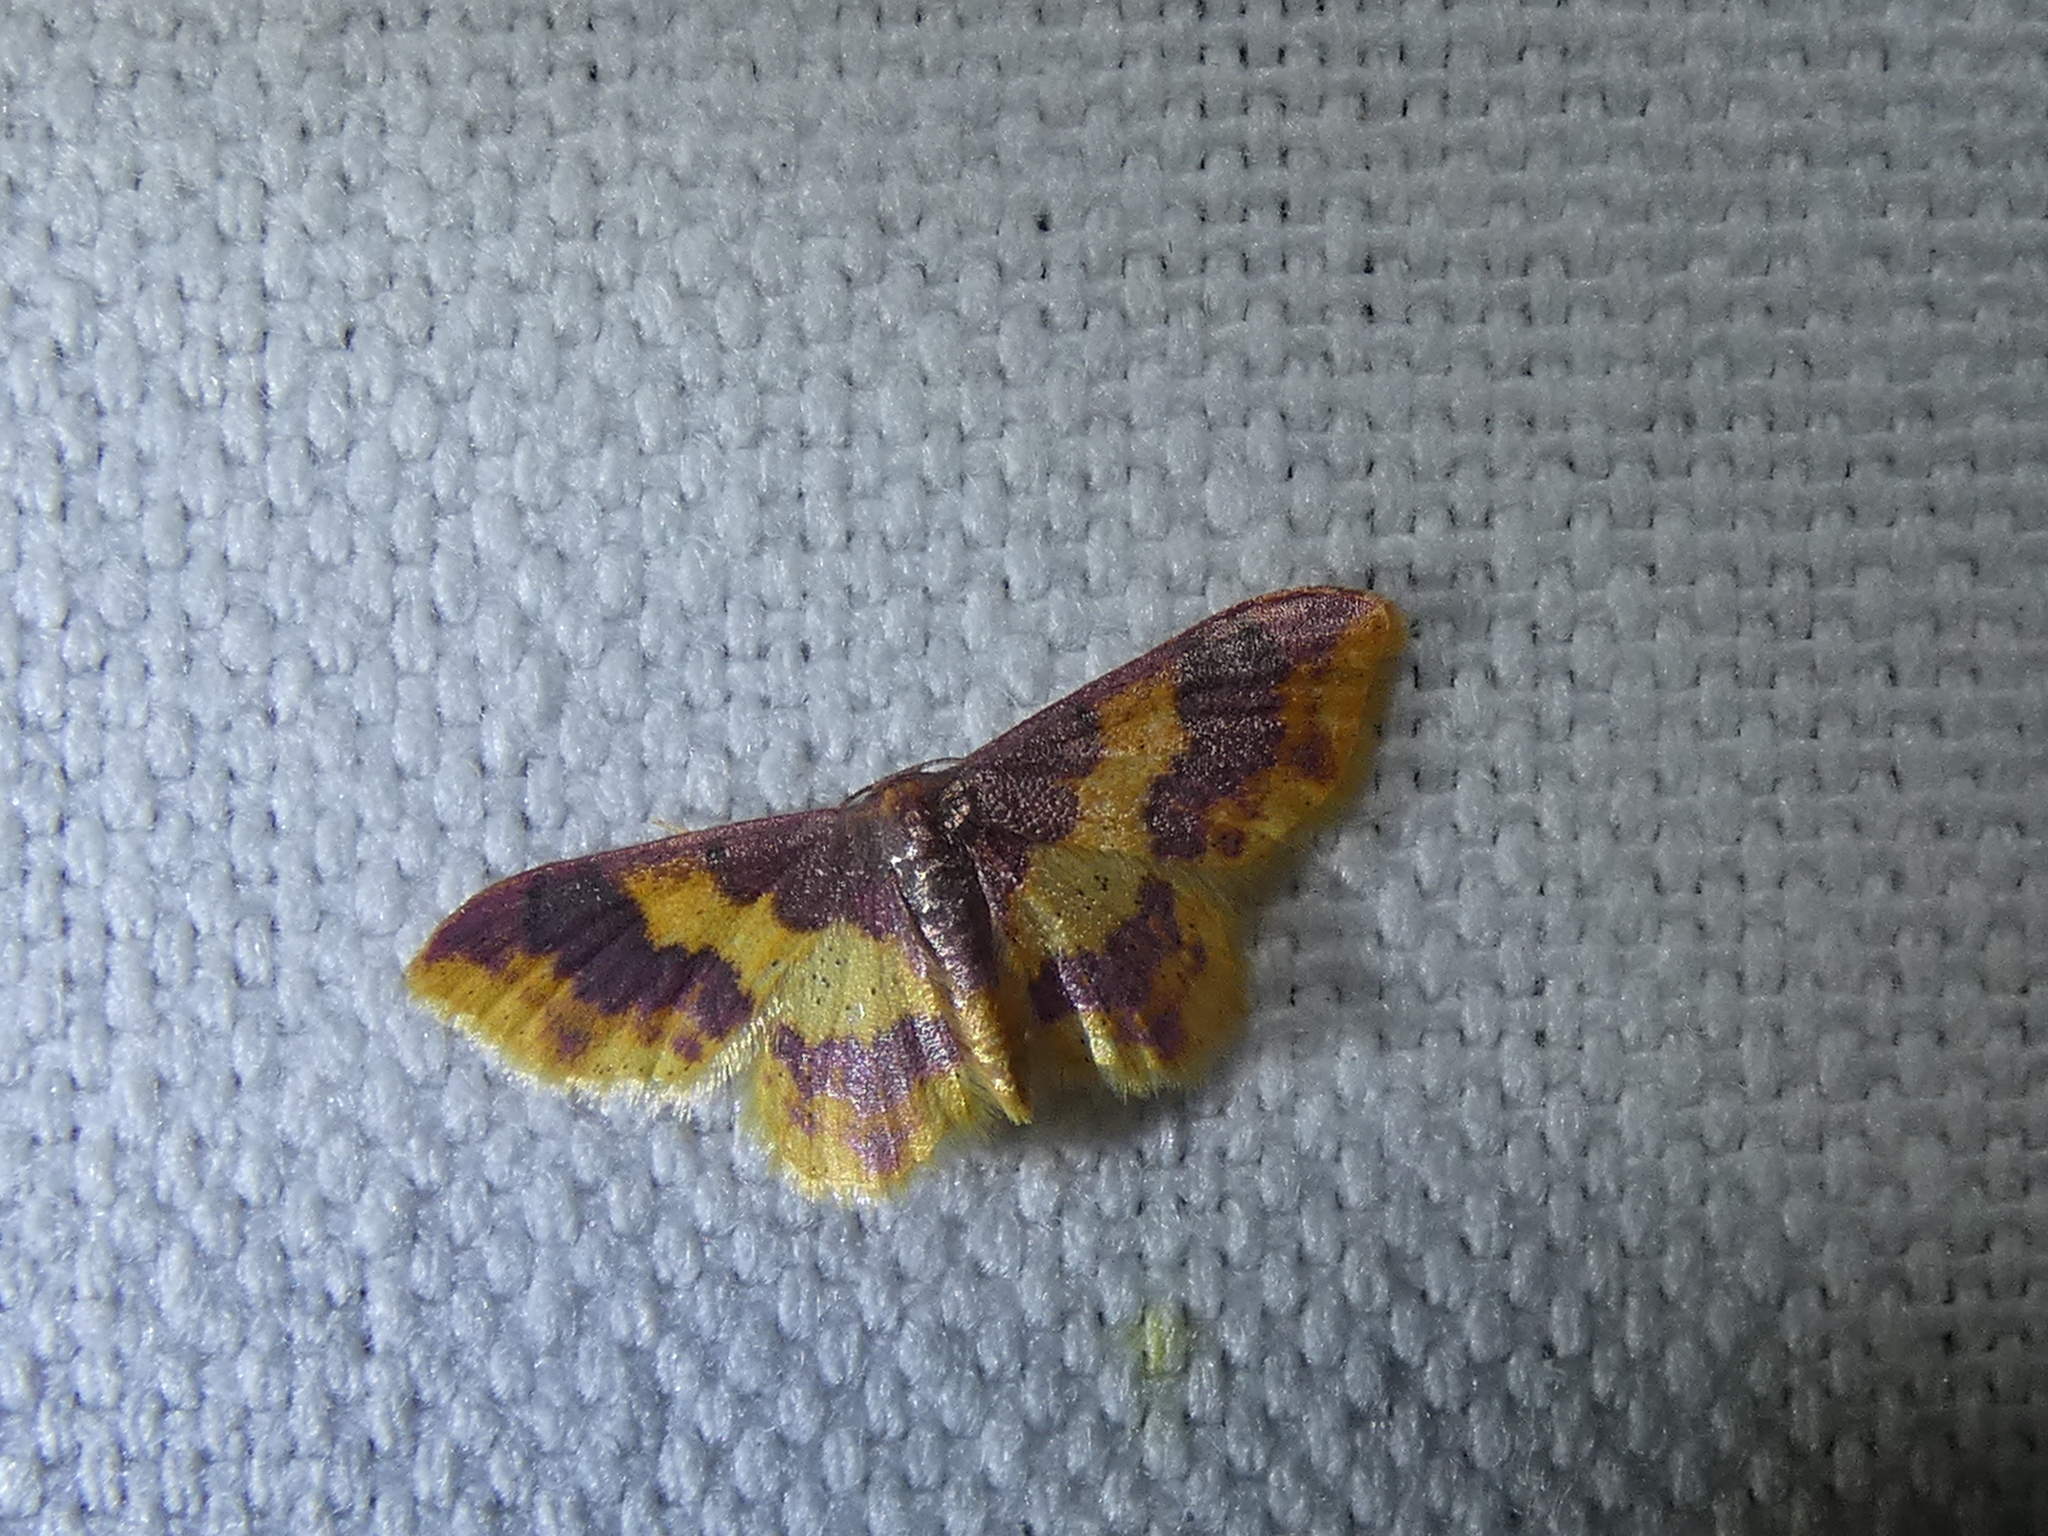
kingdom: Animalia
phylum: Arthropoda
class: Insecta
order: Lepidoptera
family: Geometridae
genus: Lophosis
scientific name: Lophosis labeculata
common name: Stained lophosis moth
